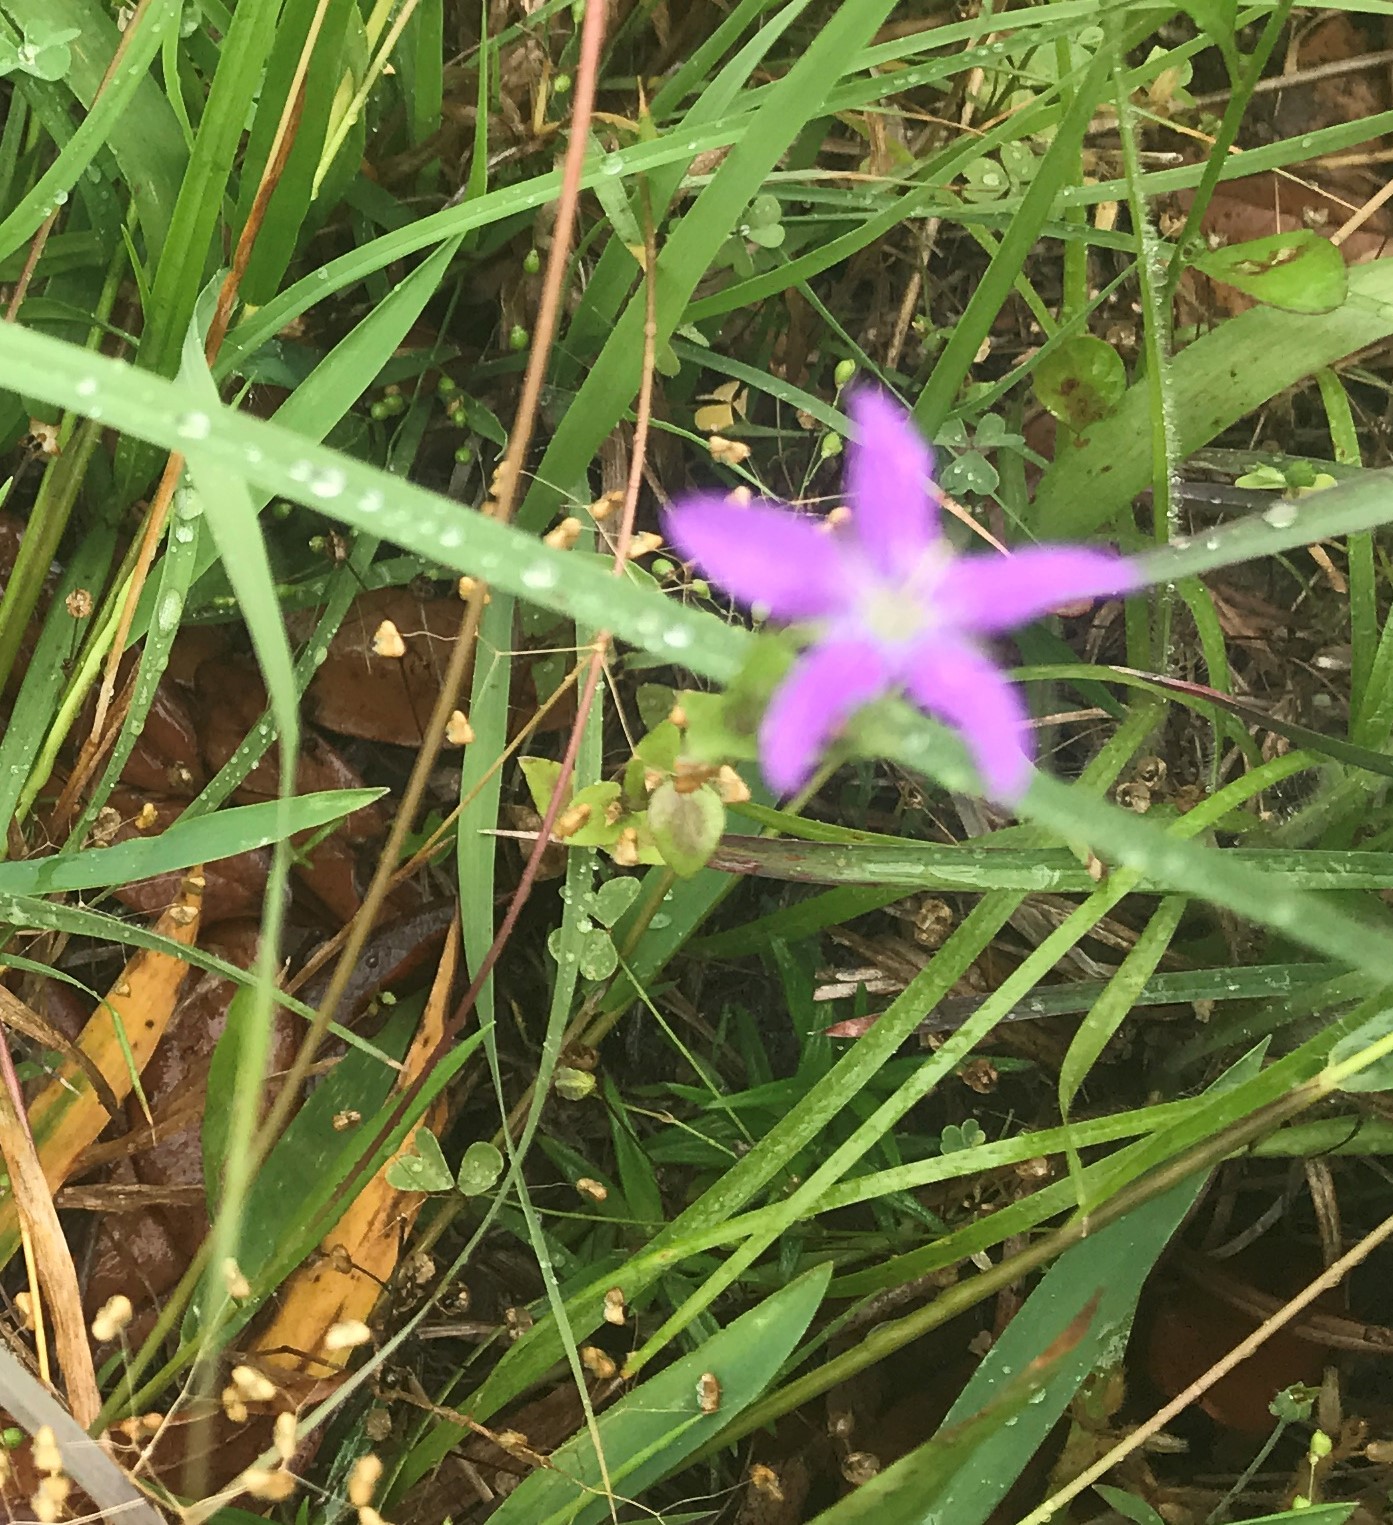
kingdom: Plantae
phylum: Tracheophyta
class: Magnoliopsida
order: Asterales
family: Campanulaceae
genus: Triodanis
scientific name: Triodanis biflora
